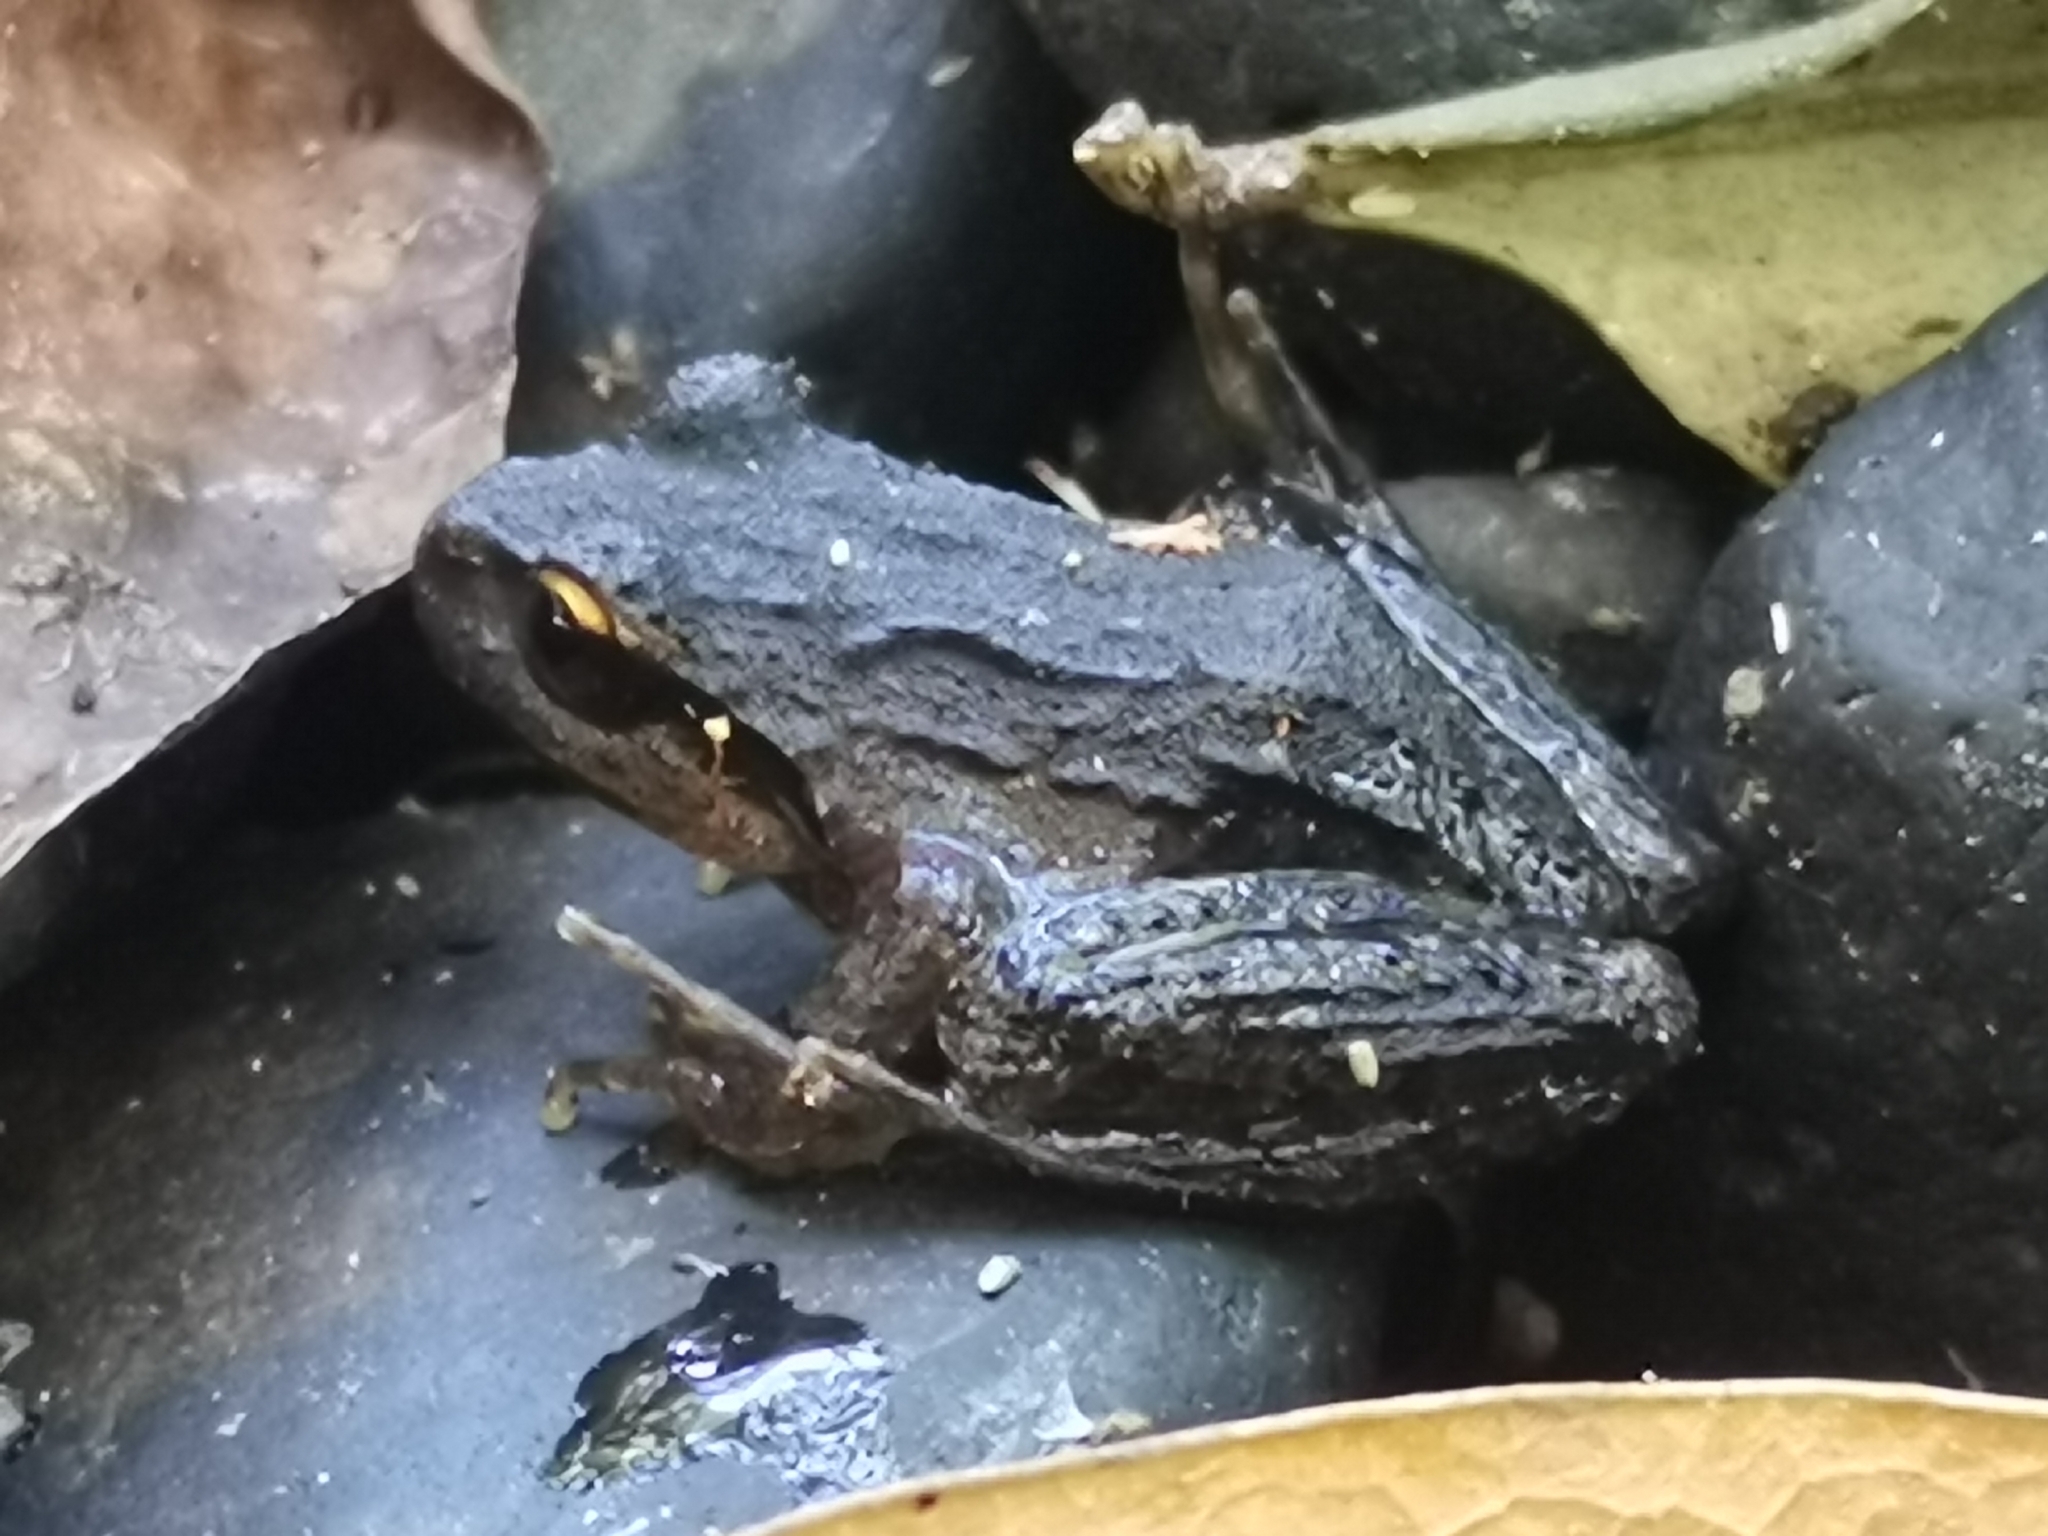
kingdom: Animalia
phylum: Chordata
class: Amphibia
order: Anura
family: Batrachylidae
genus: Batrachyla
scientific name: Batrachyla taeniata
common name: Banded wood frog
